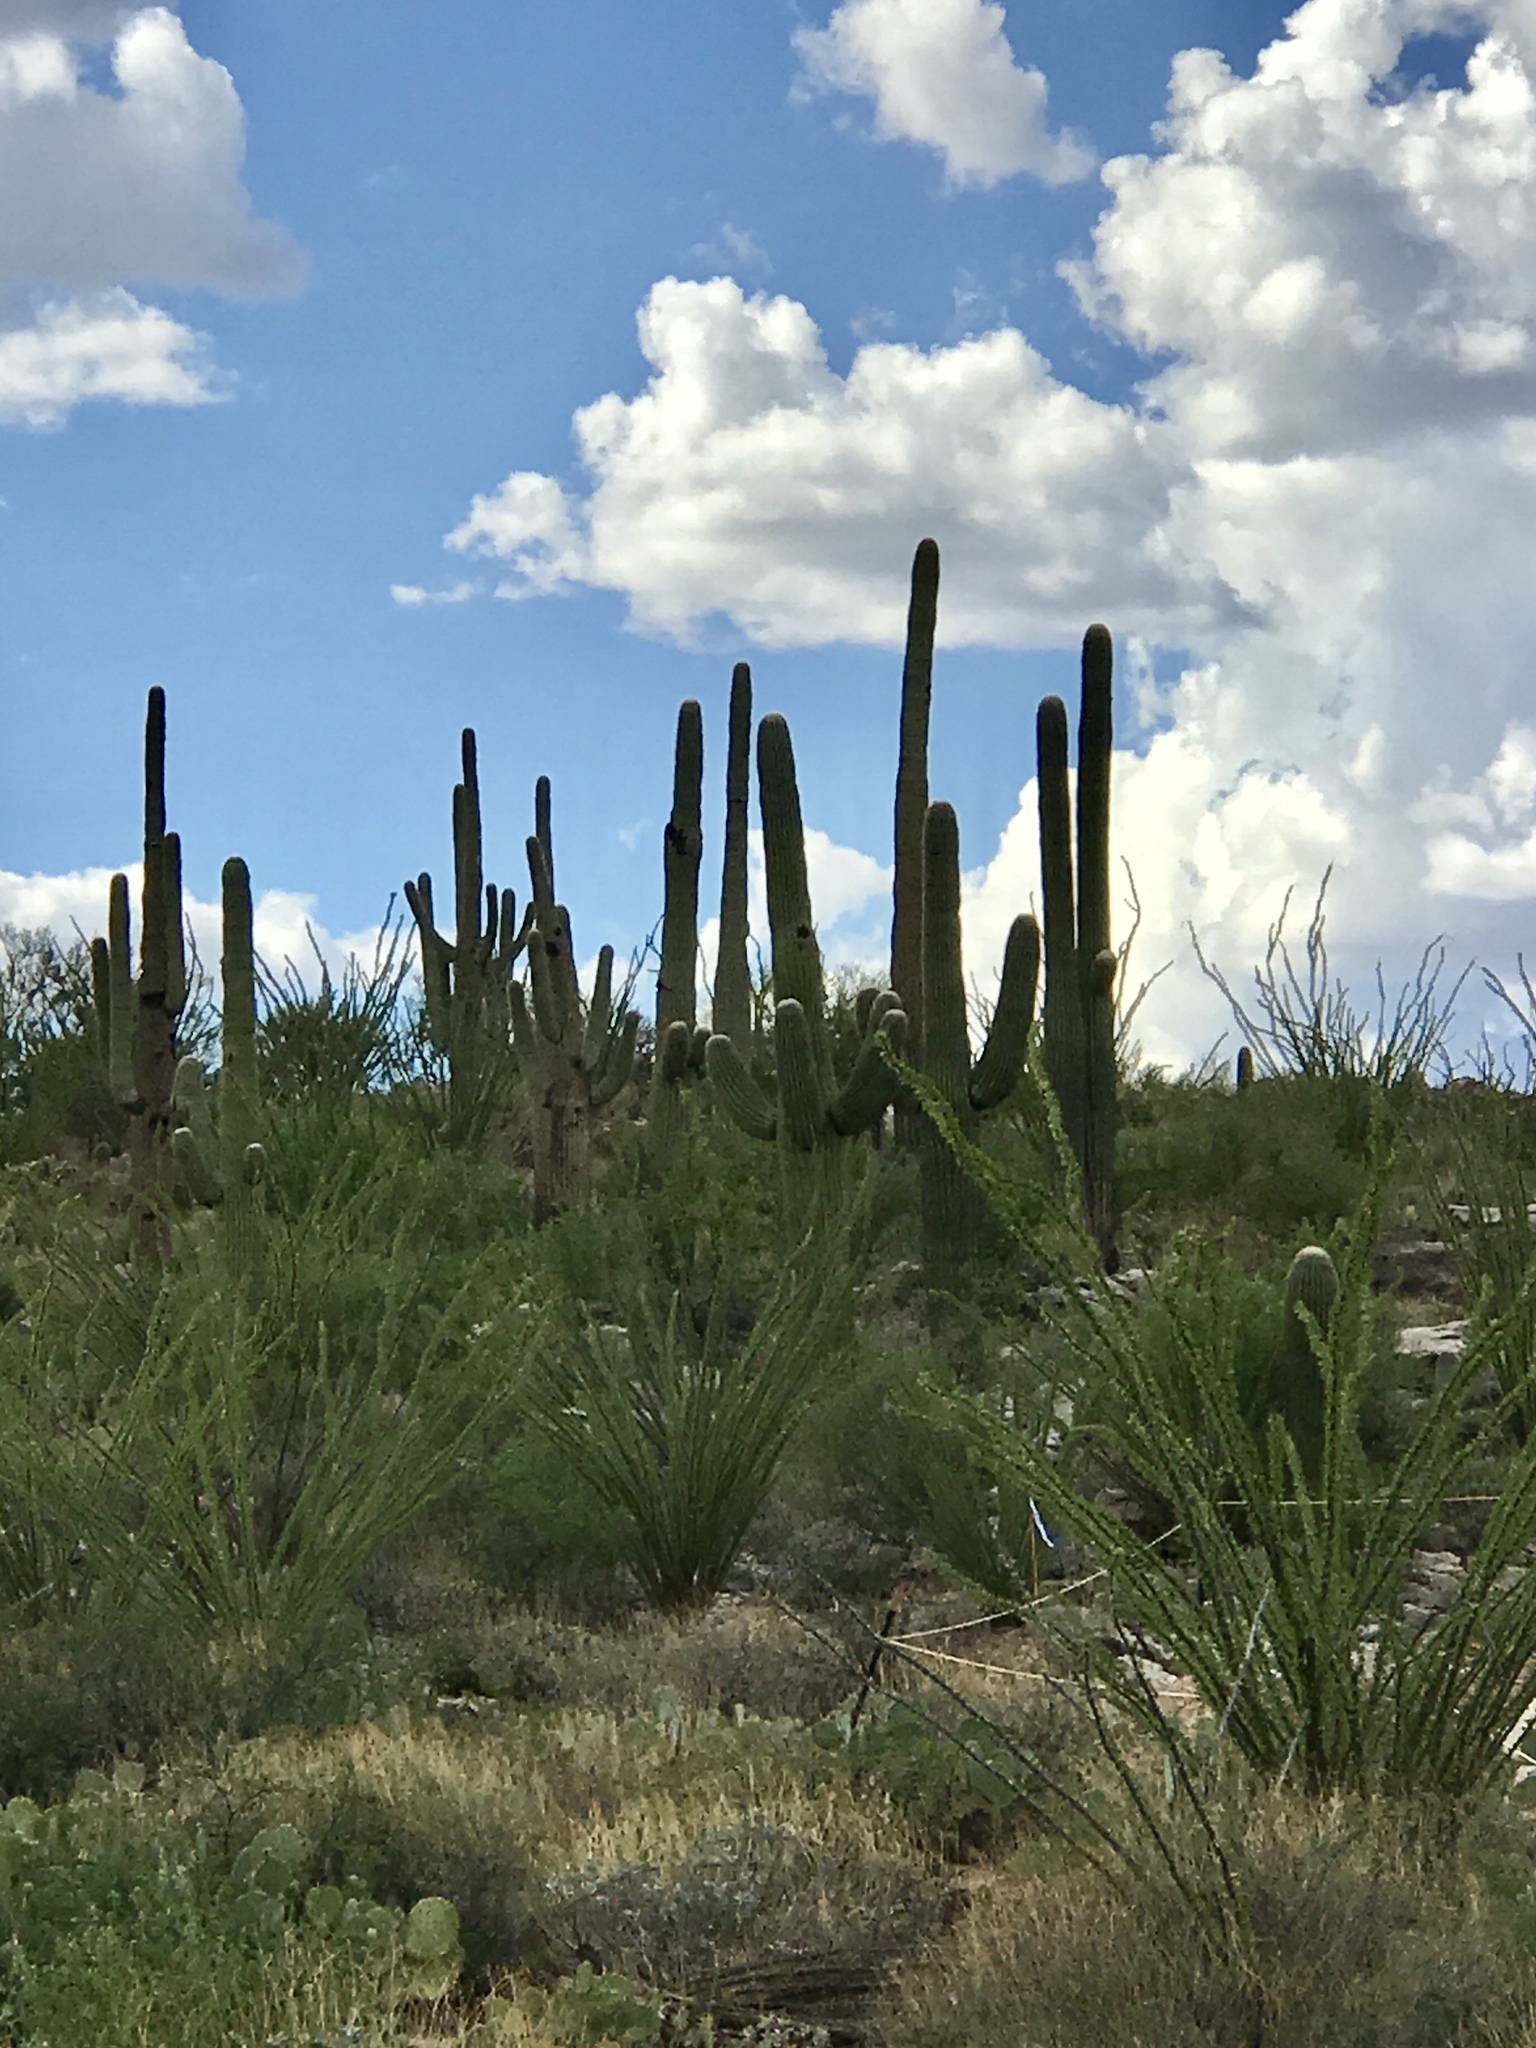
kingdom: Plantae
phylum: Tracheophyta
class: Magnoliopsida
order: Caryophyllales
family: Cactaceae
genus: Carnegiea
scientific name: Carnegiea gigantea
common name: Saguaro
